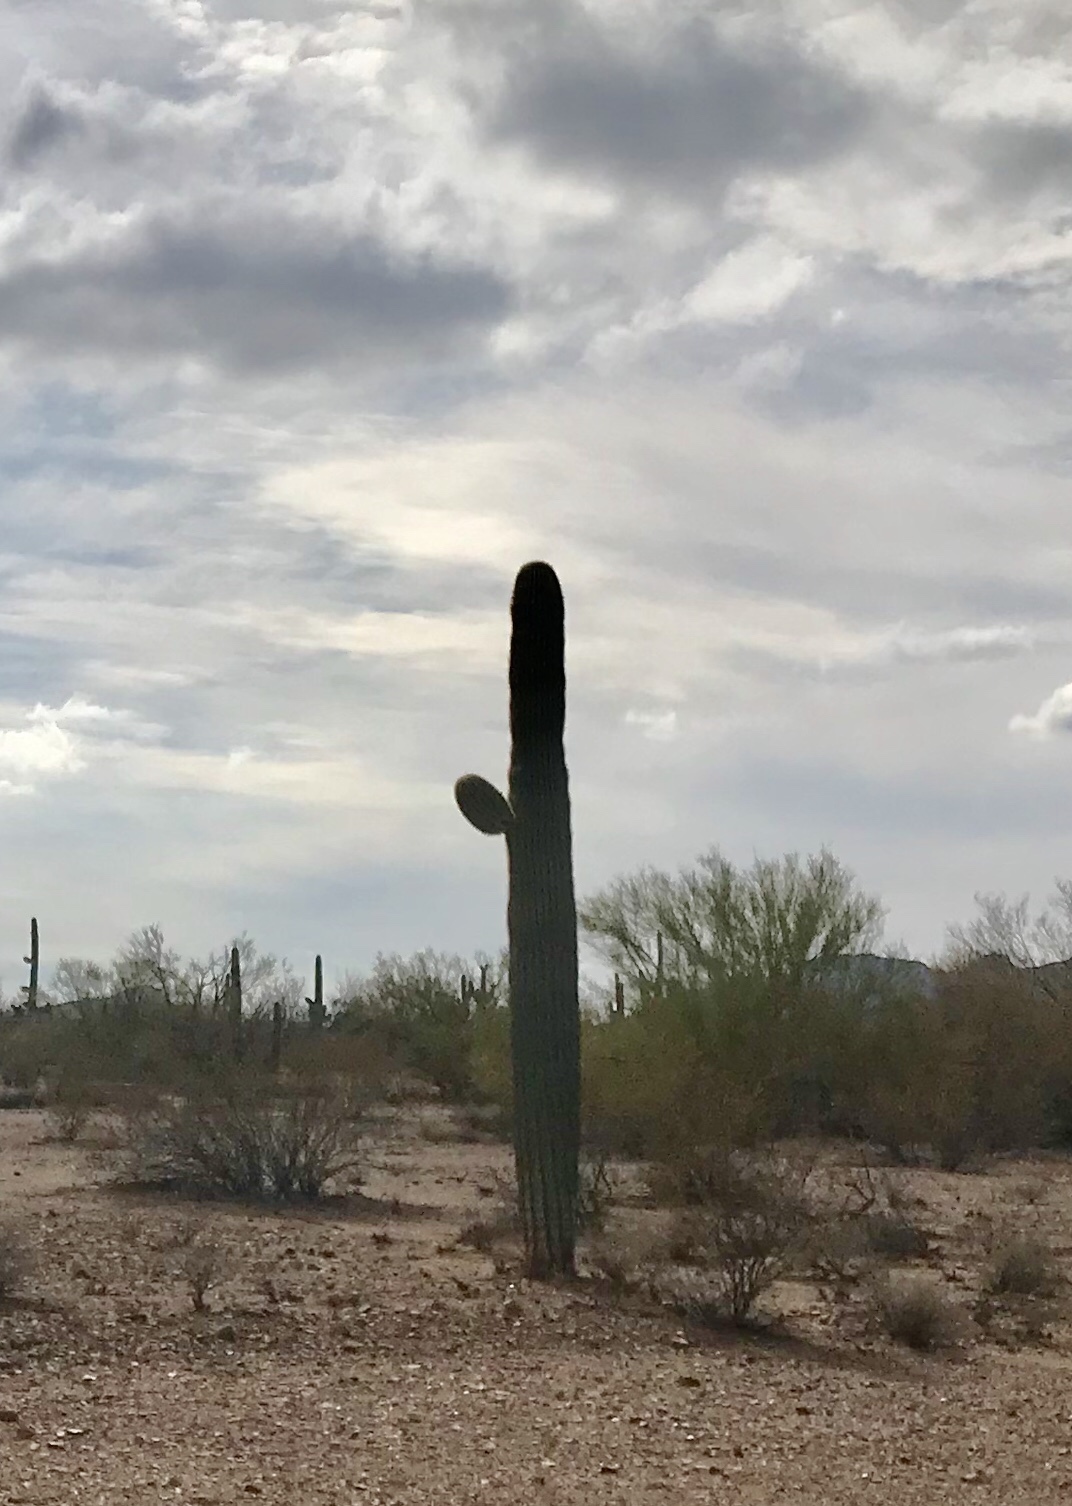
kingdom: Plantae
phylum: Tracheophyta
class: Magnoliopsida
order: Caryophyllales
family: Cactaceae
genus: Carnegiea
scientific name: Carnegiea gigantea
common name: Saguaro
